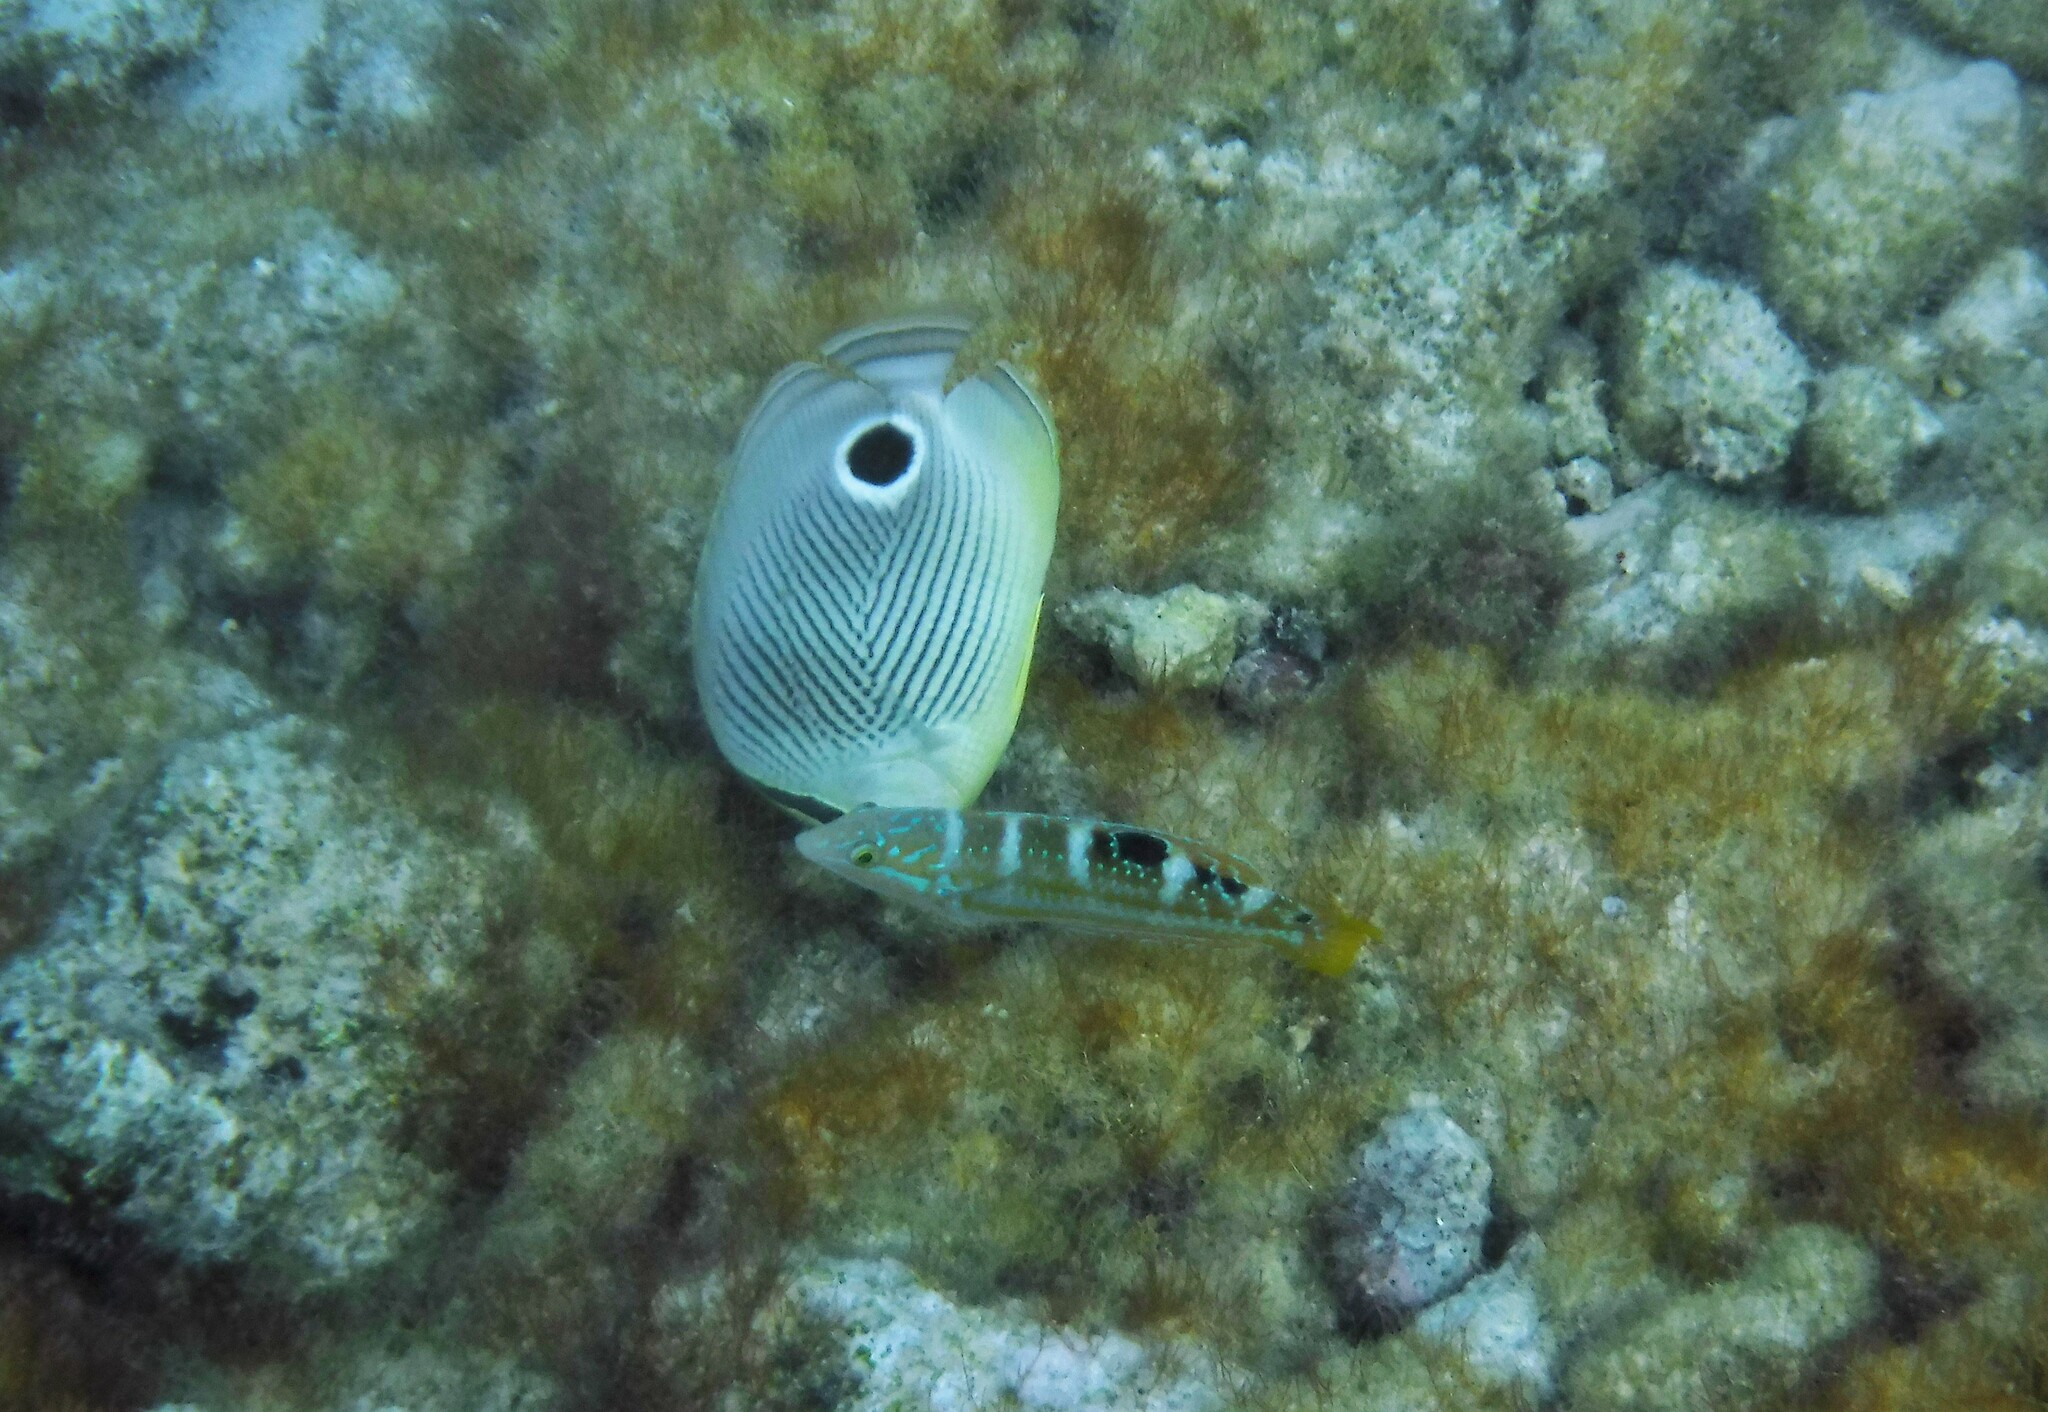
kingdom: Animalia
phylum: Chordata
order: Perciformes
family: Chaetodontidae
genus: Chaetodon
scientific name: Chaetodon capistratus
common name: Kete
